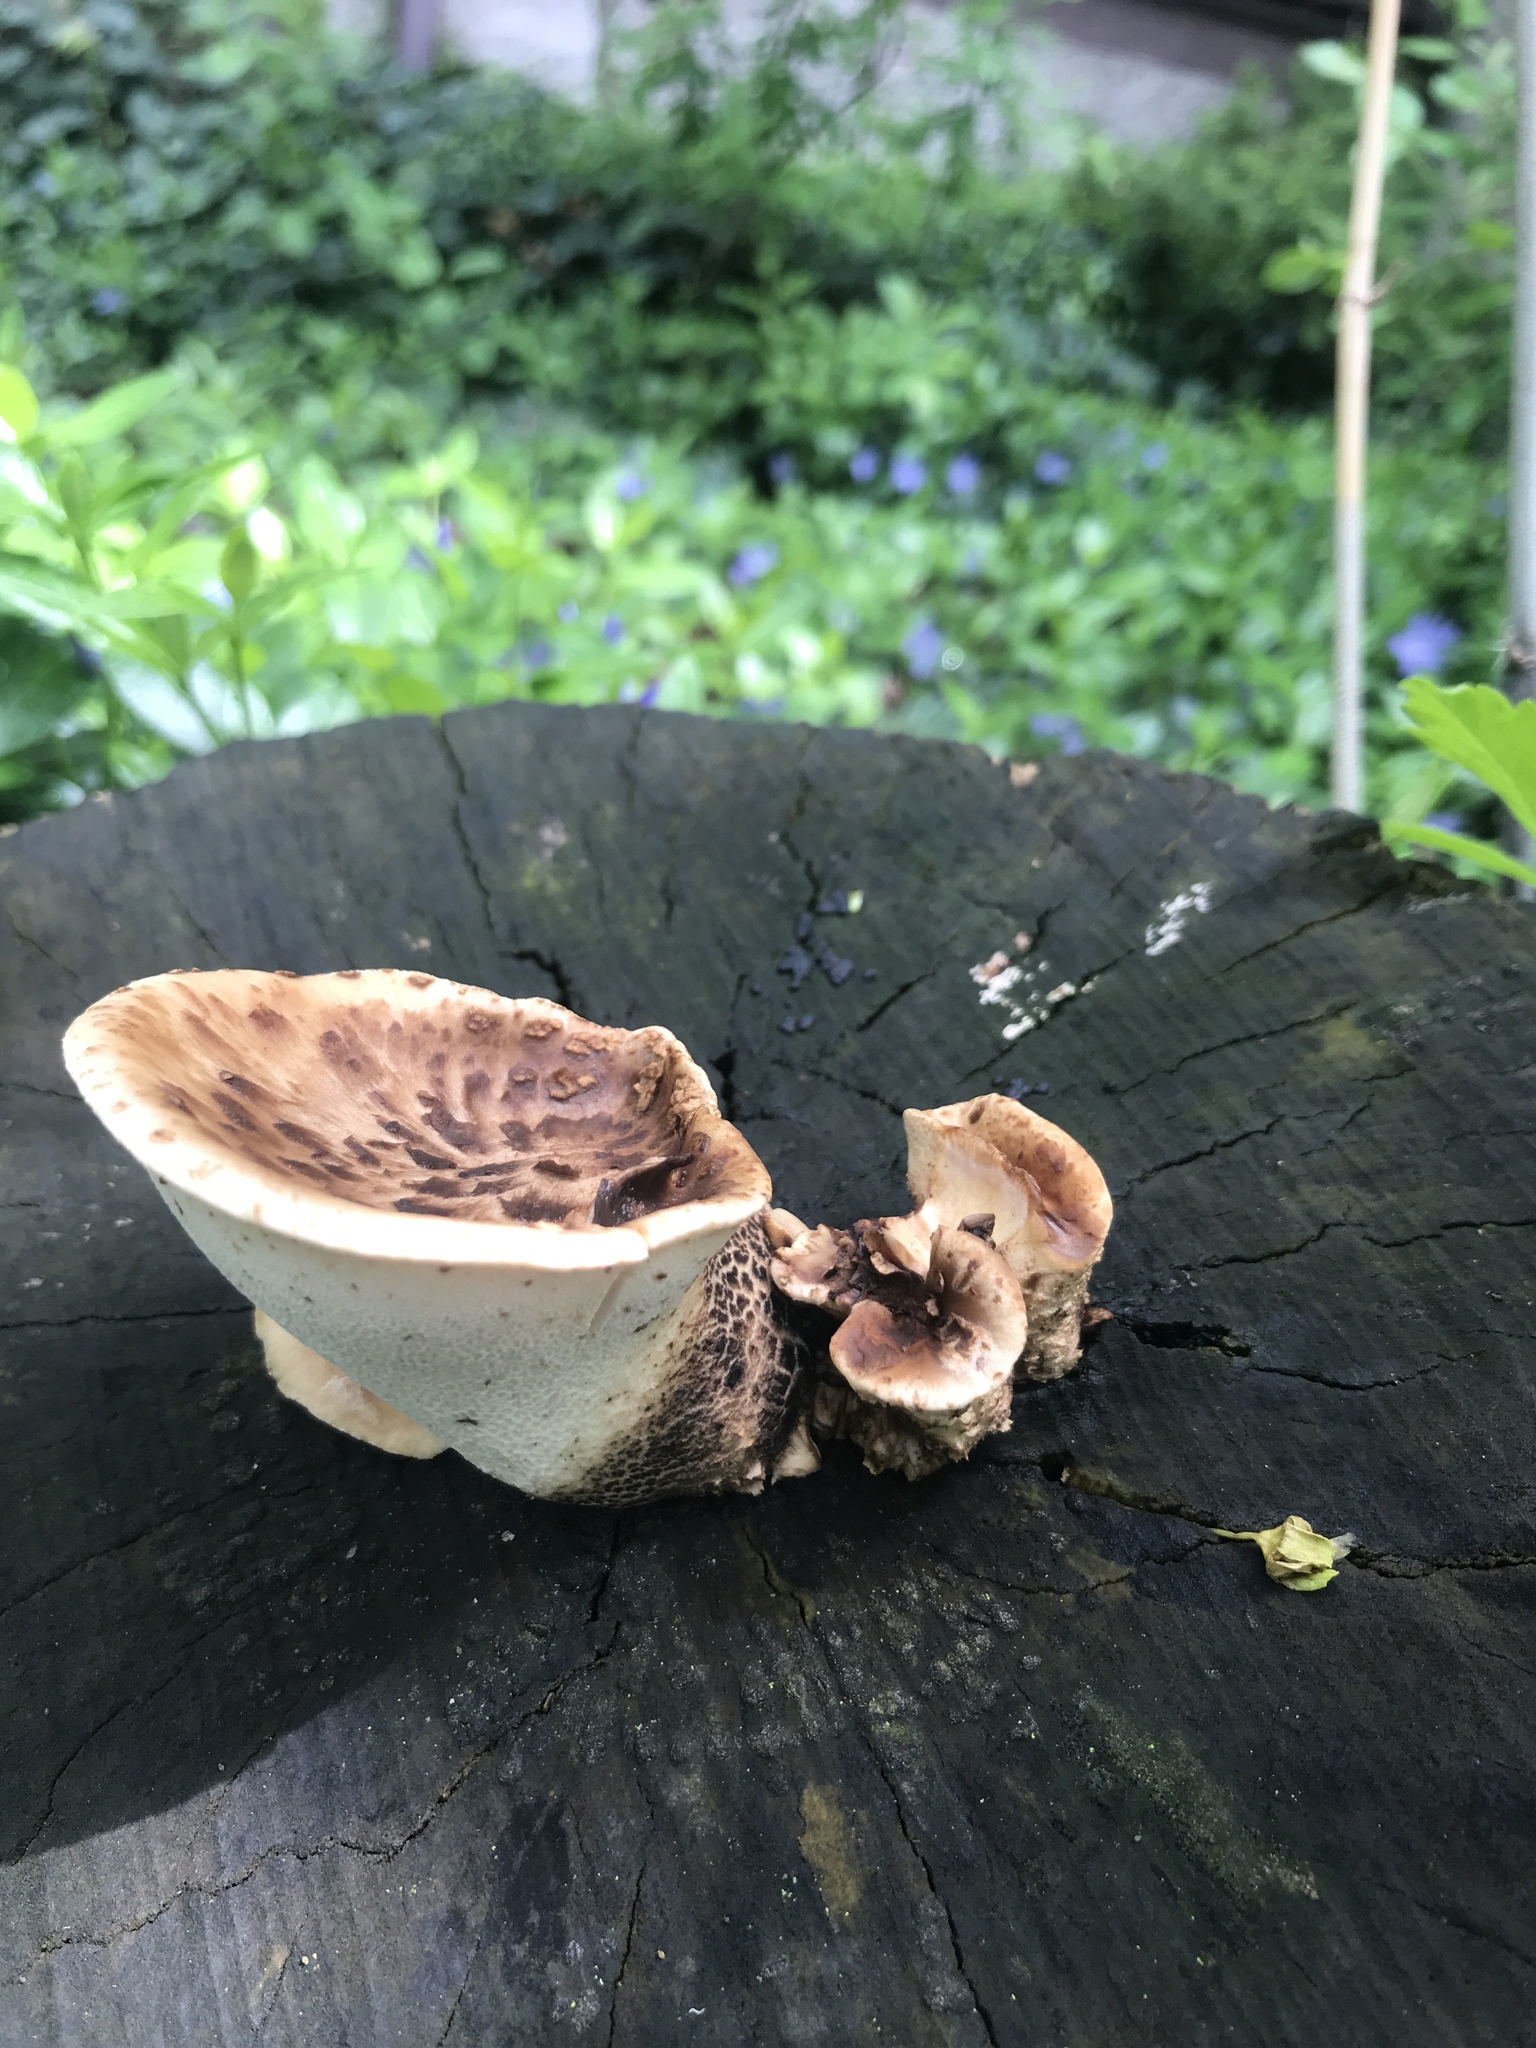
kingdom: Fungi
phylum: Basidiomycota
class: Agaricomycetes
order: Polyporales
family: Polyporaceae
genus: Cerioporus
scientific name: Cerioporus squamosus
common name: Dryad's saddle
